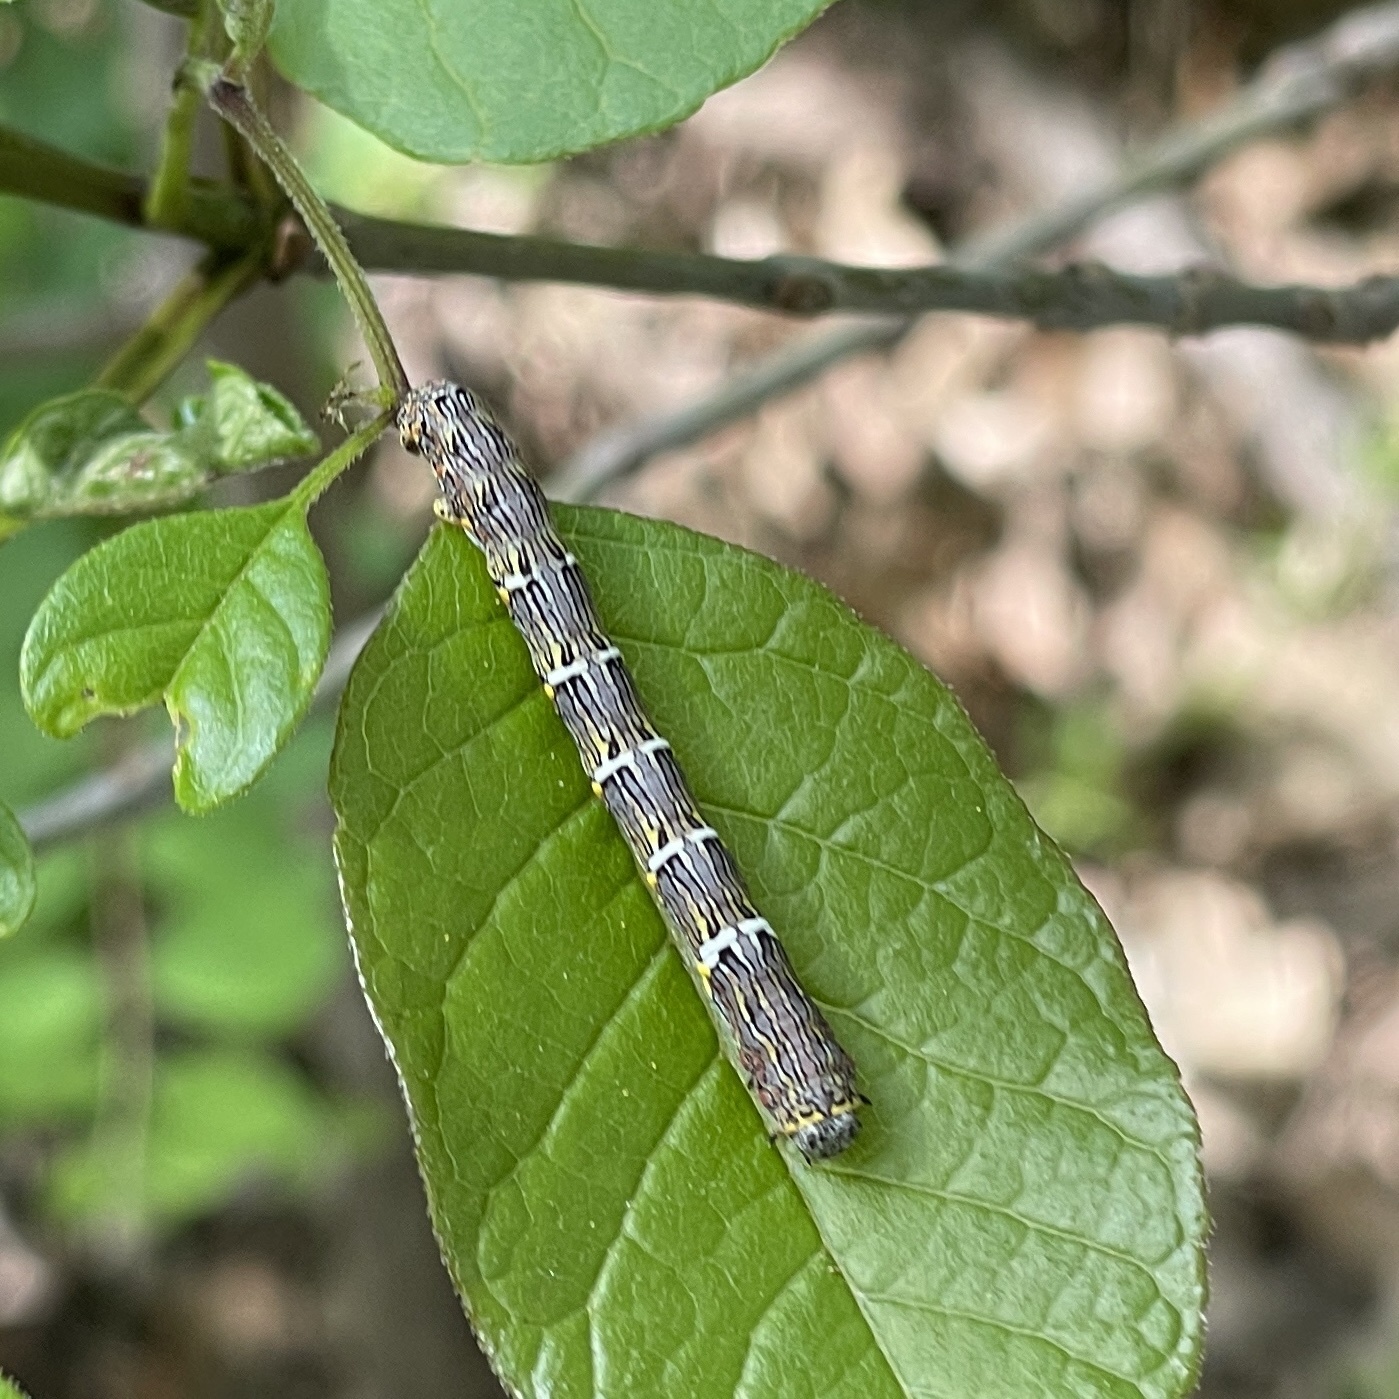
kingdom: Animalia
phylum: Arthropoda
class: Insecta
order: Lepidoptera
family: Geometridae
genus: Lycia
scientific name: Lycia ypsilon
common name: Wooly gray
